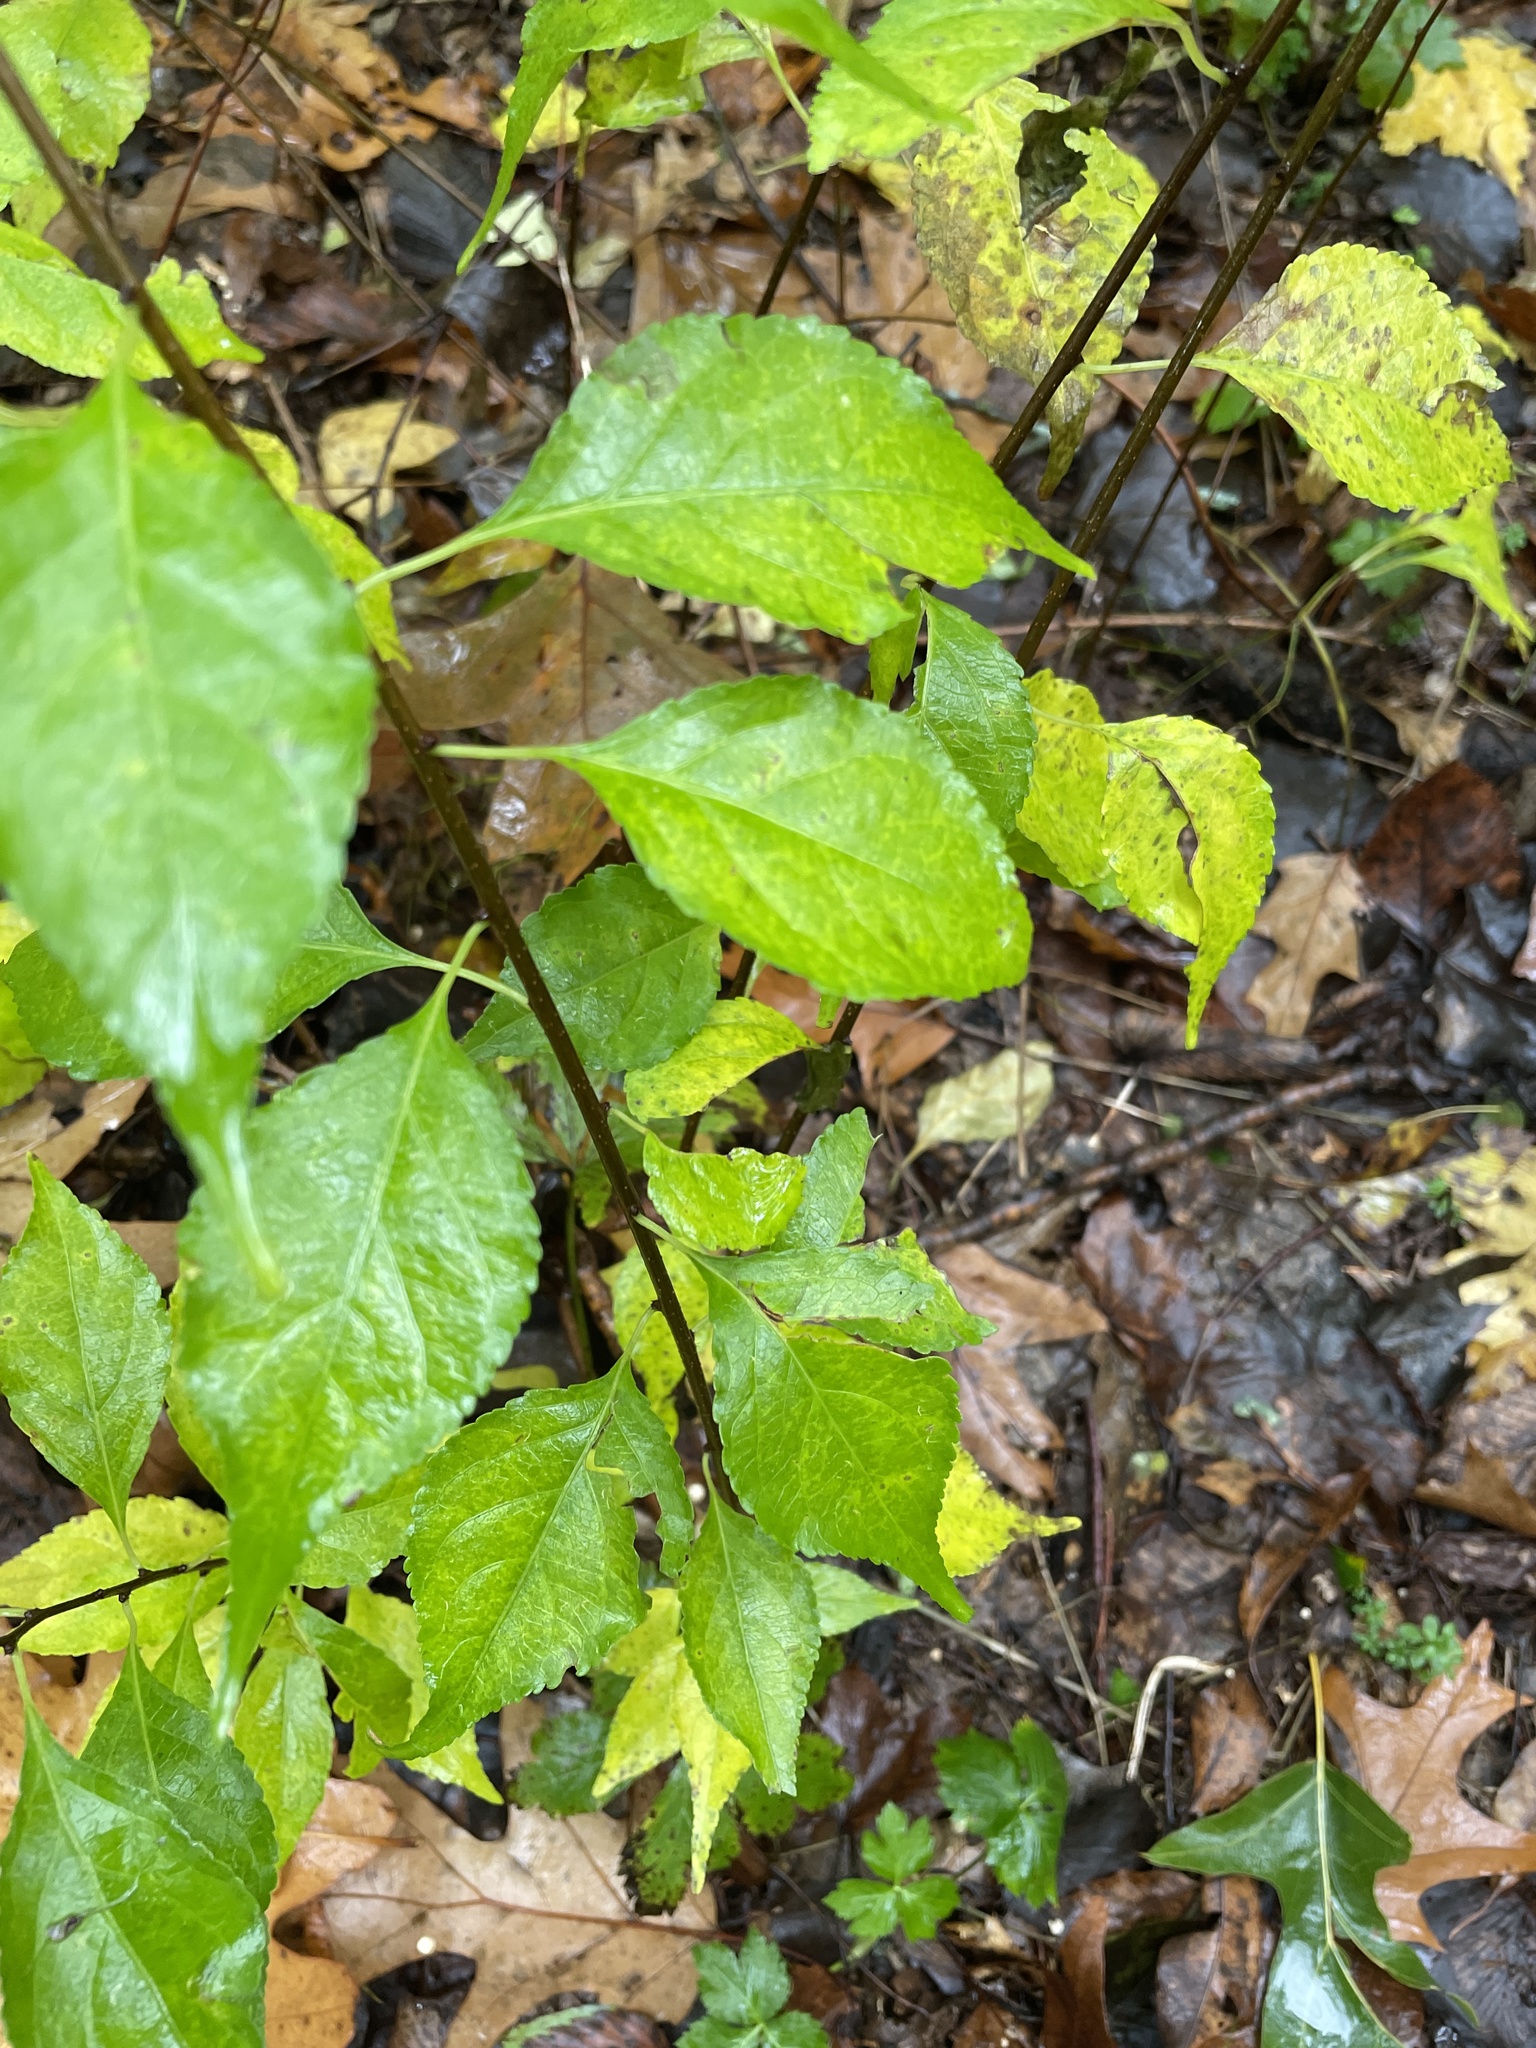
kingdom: Plantae
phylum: Tracheophyta
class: Magnoliopsida
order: Celastrales
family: Celastraceae
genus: Celastrus
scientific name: Celastrus orbiculatus
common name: Oriental bittersweet
